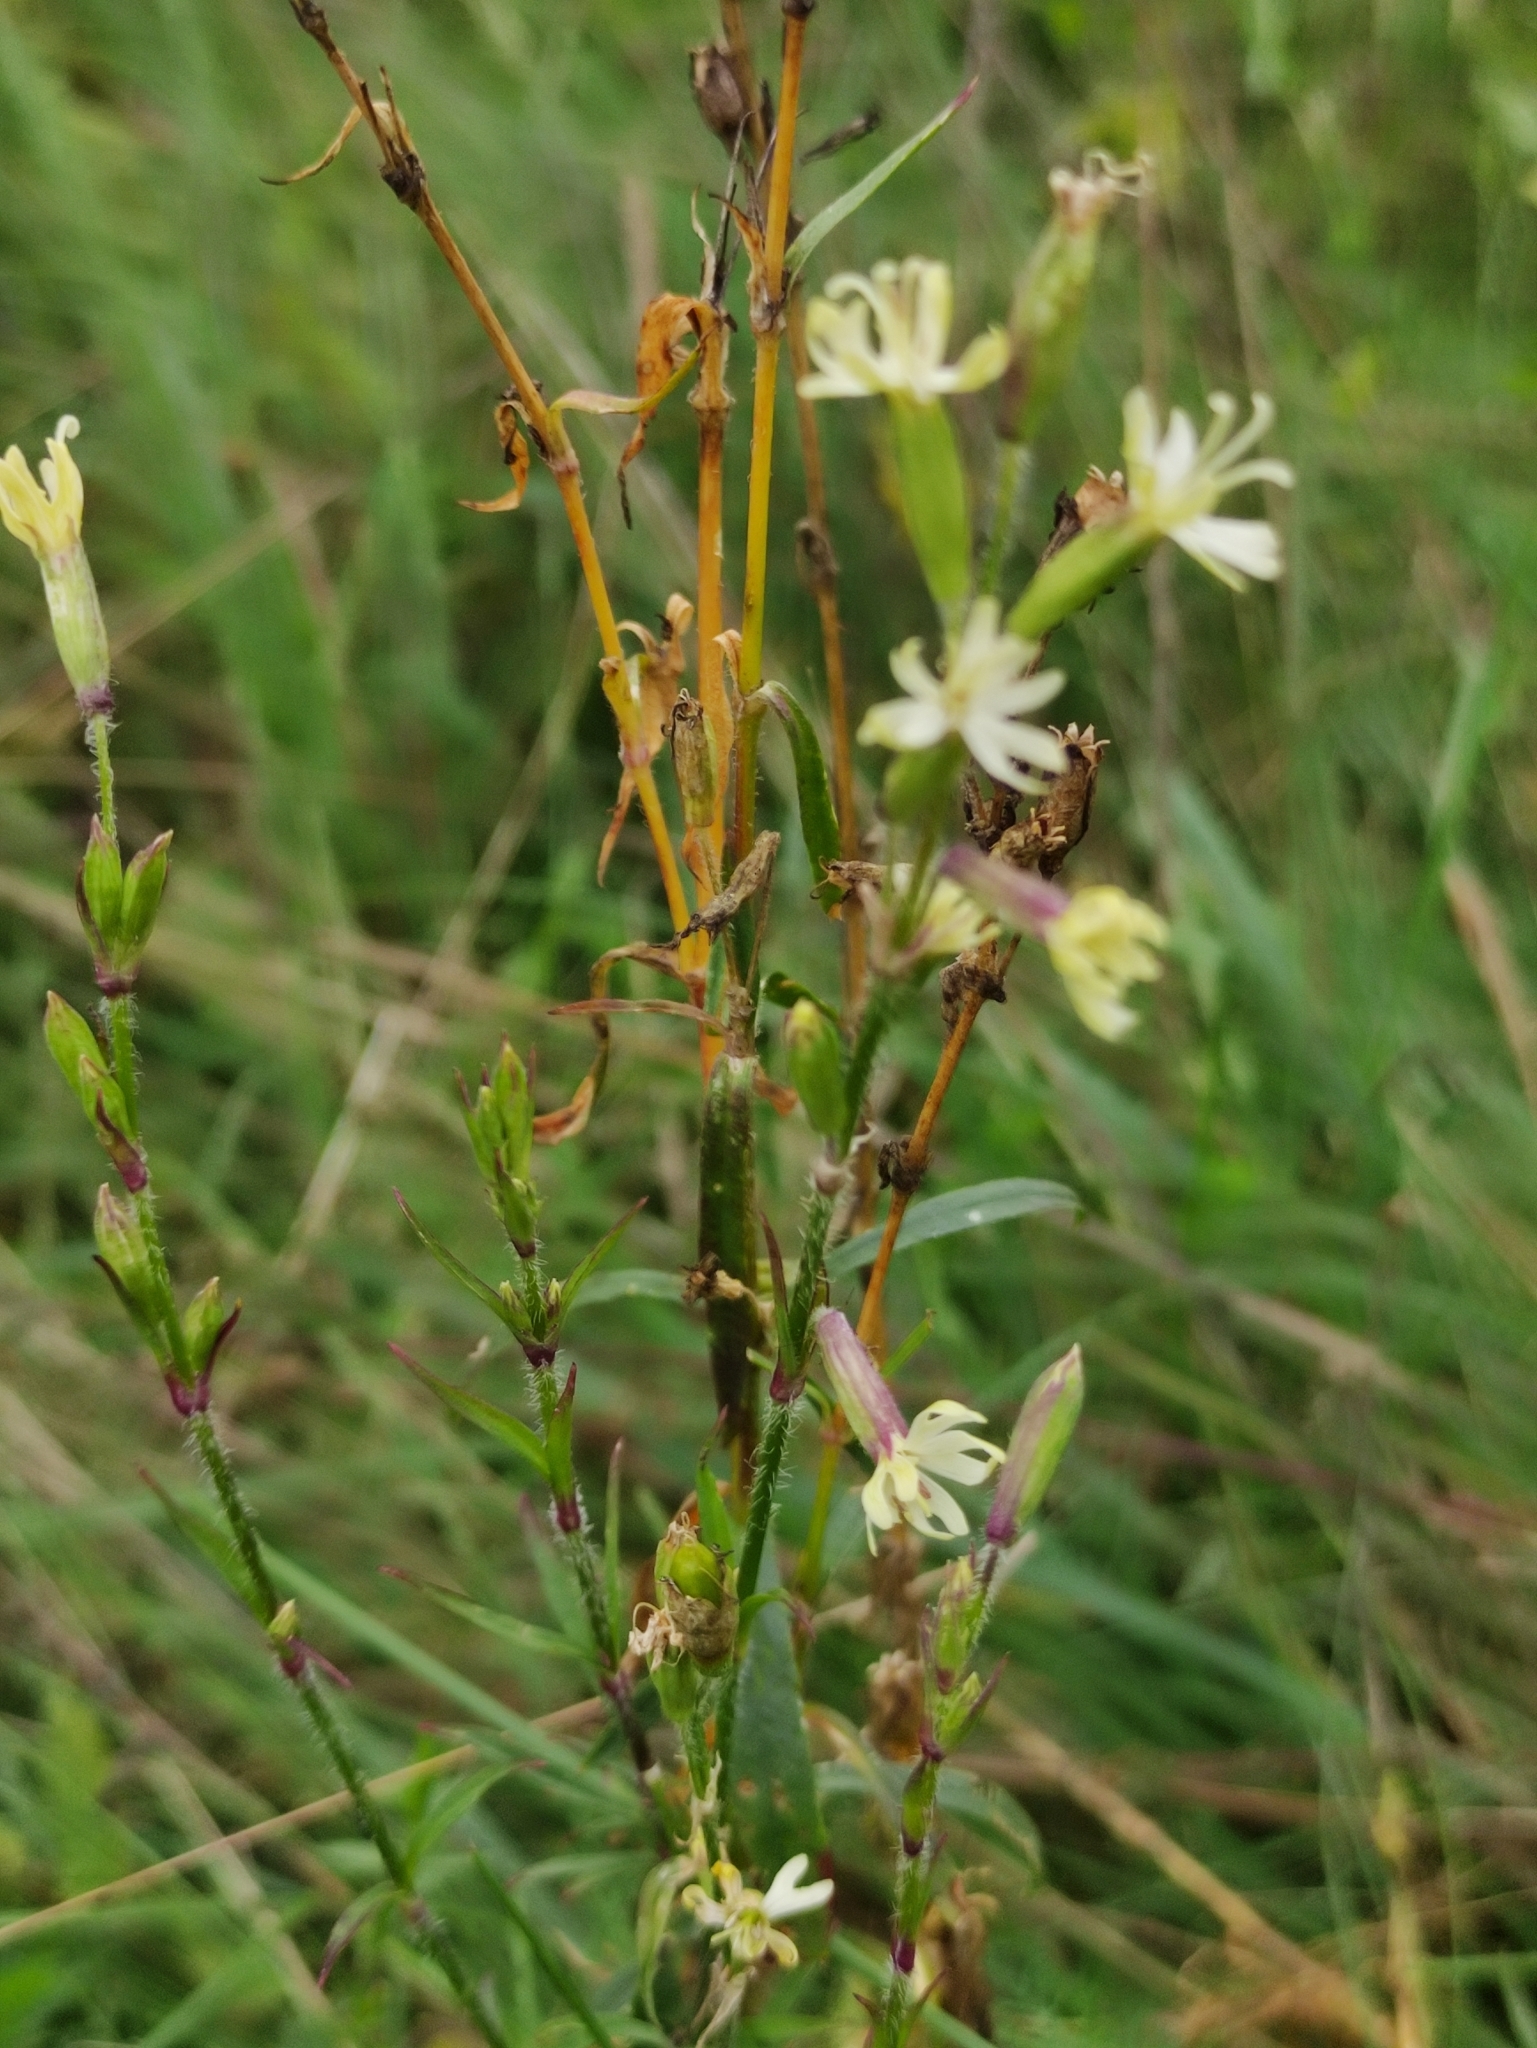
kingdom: Plantae
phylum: Tracheophyta
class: Magnoliopsida
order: Caryophyllales
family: Caryophyllaceae
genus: Silene
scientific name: Silene tatarica
